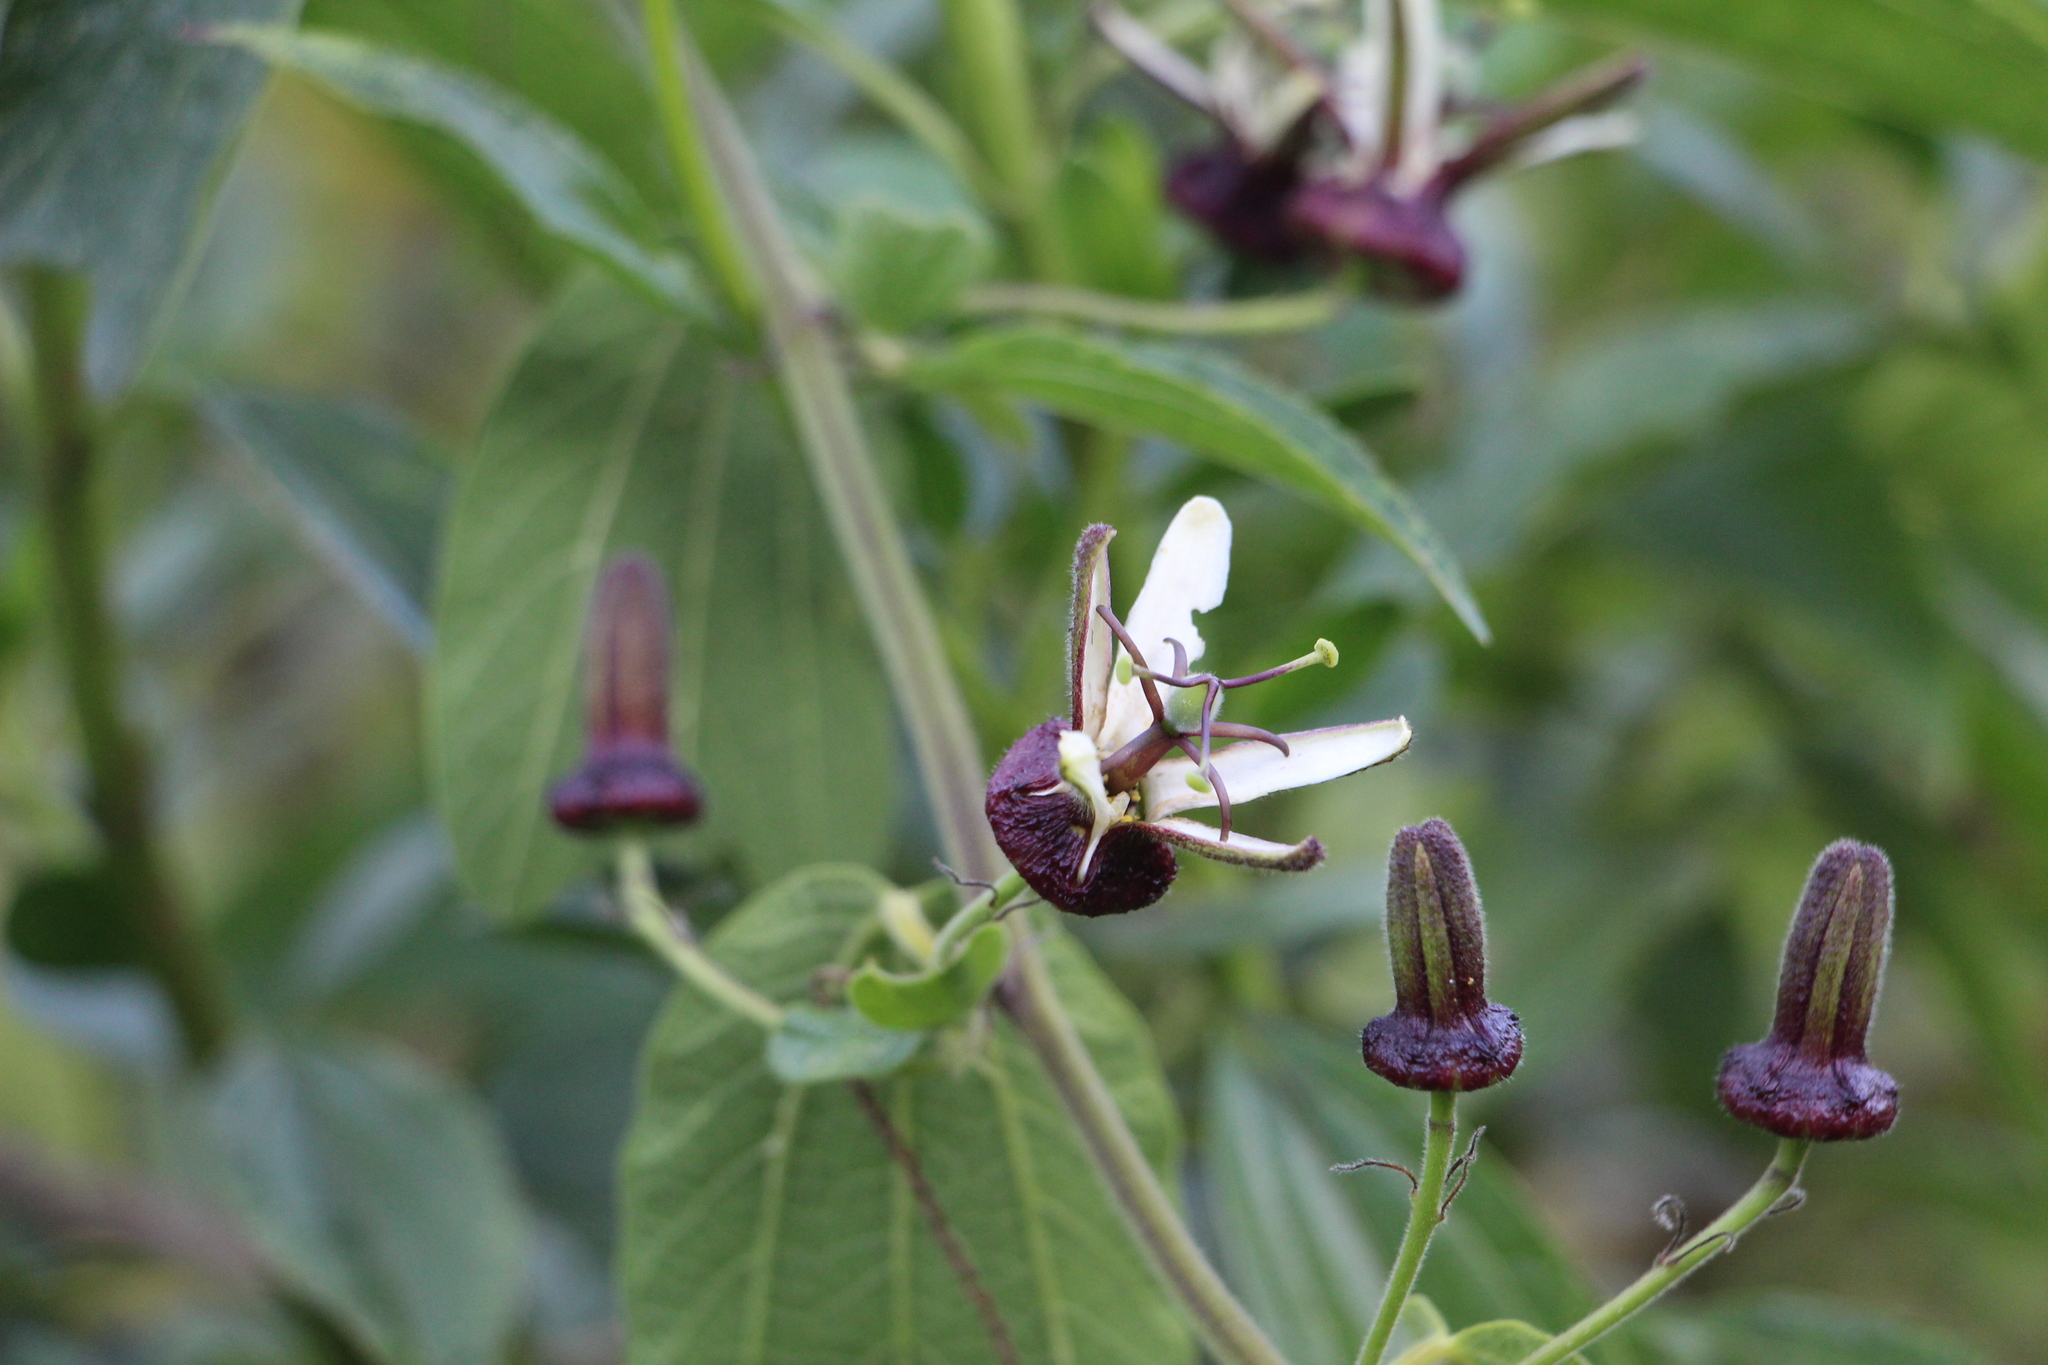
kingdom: Plantae
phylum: Tracheophyta
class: Magnoliopsida
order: Malpighiales
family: Passifloraceae
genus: Passiflora
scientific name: Passiflora bogotensis
